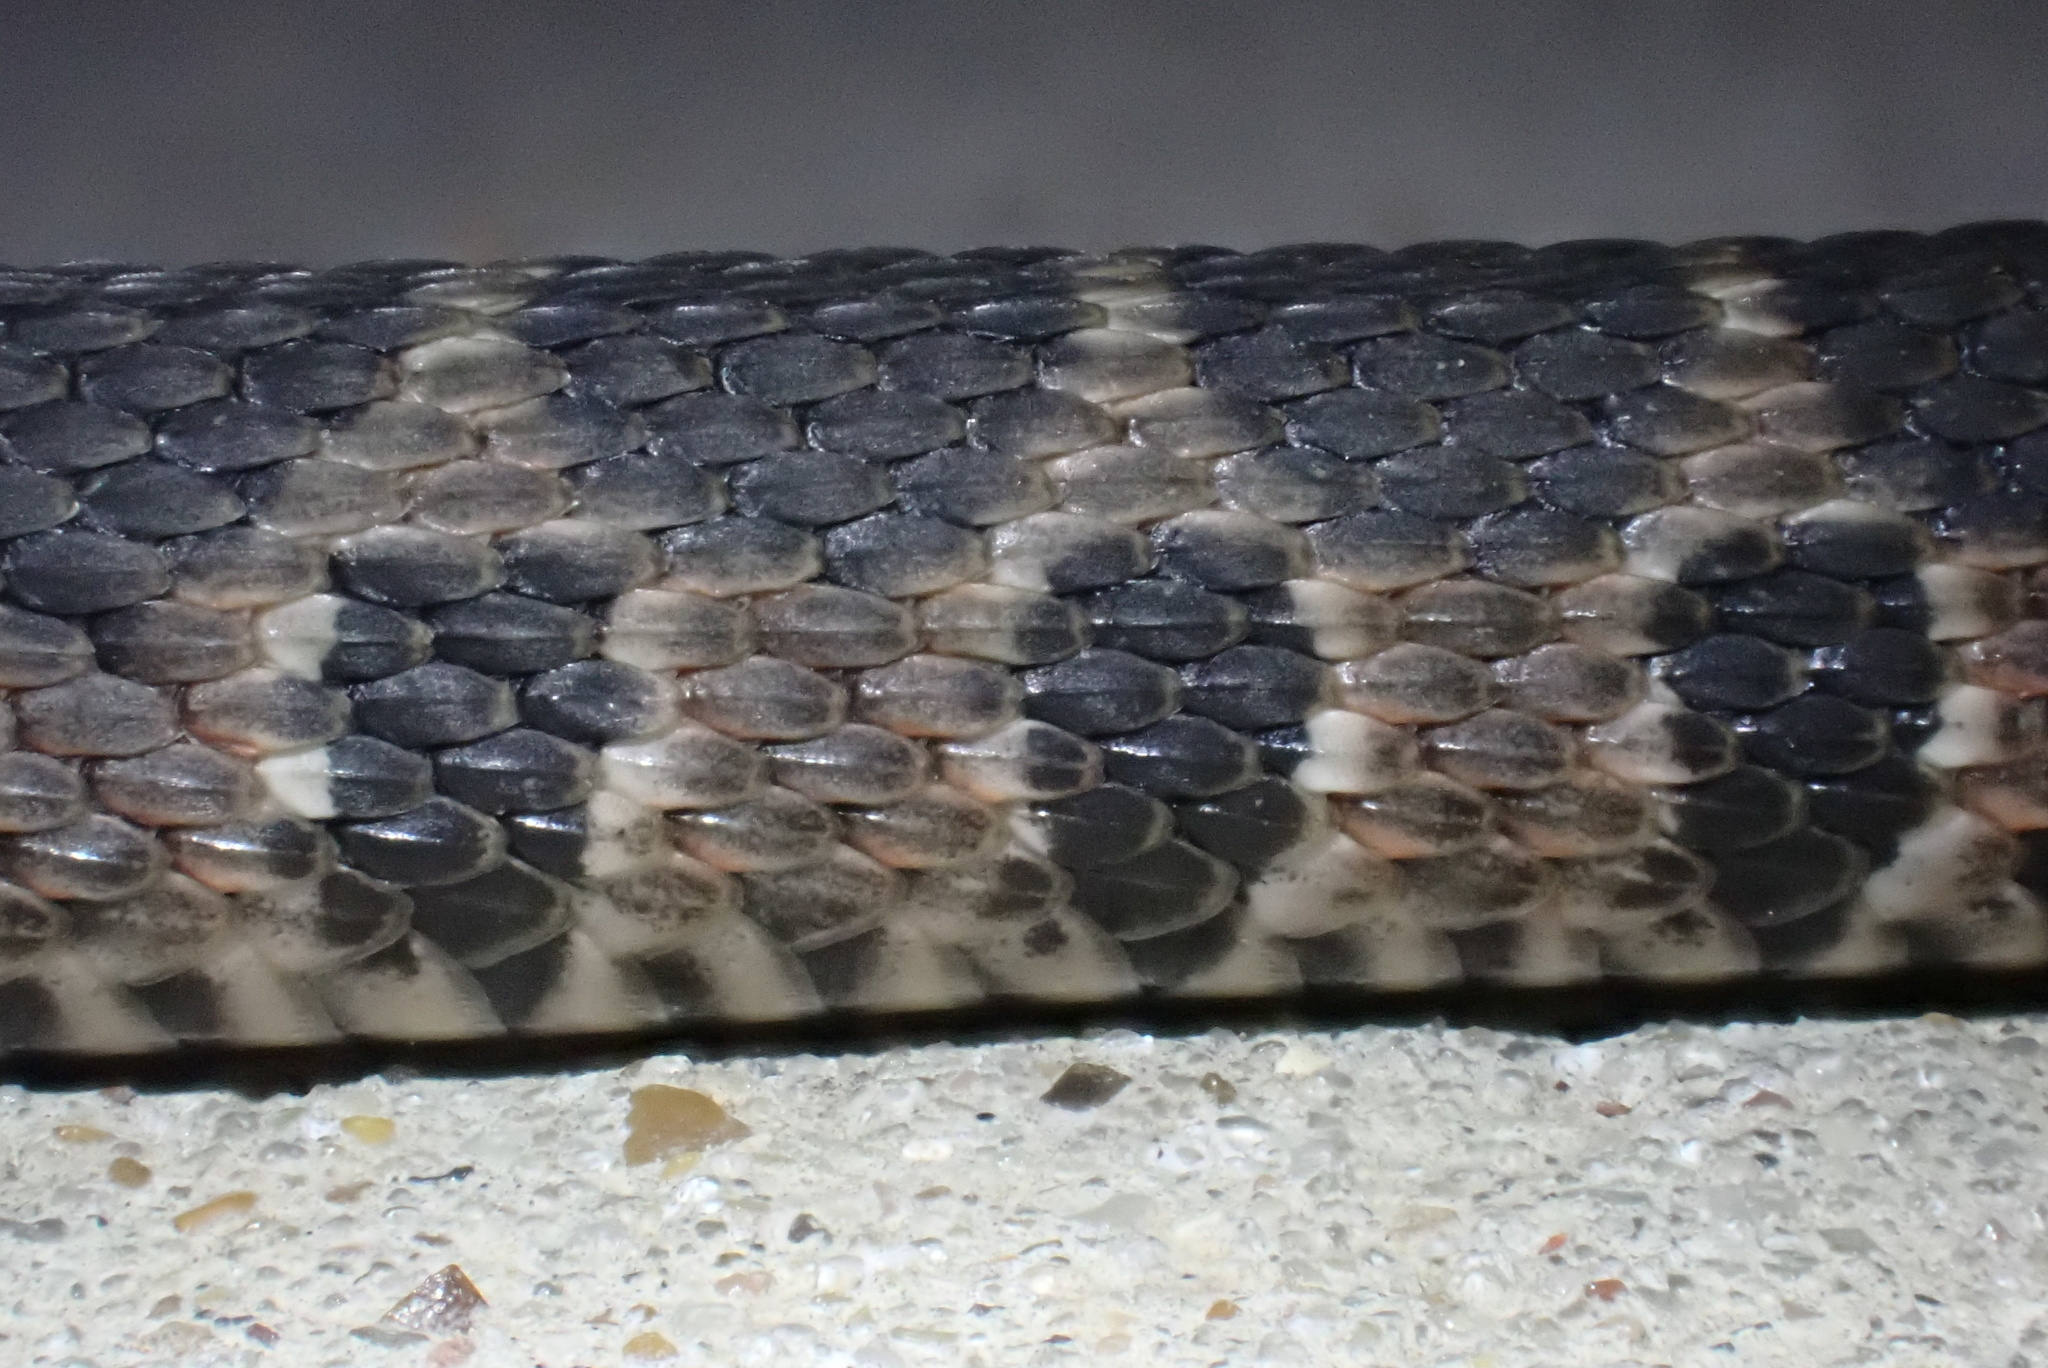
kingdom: Animalia
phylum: Chordata
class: Squamata
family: Colubridae
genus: Nerodia
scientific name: Nerodia erythrogaster
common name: Plainbelly water snake
